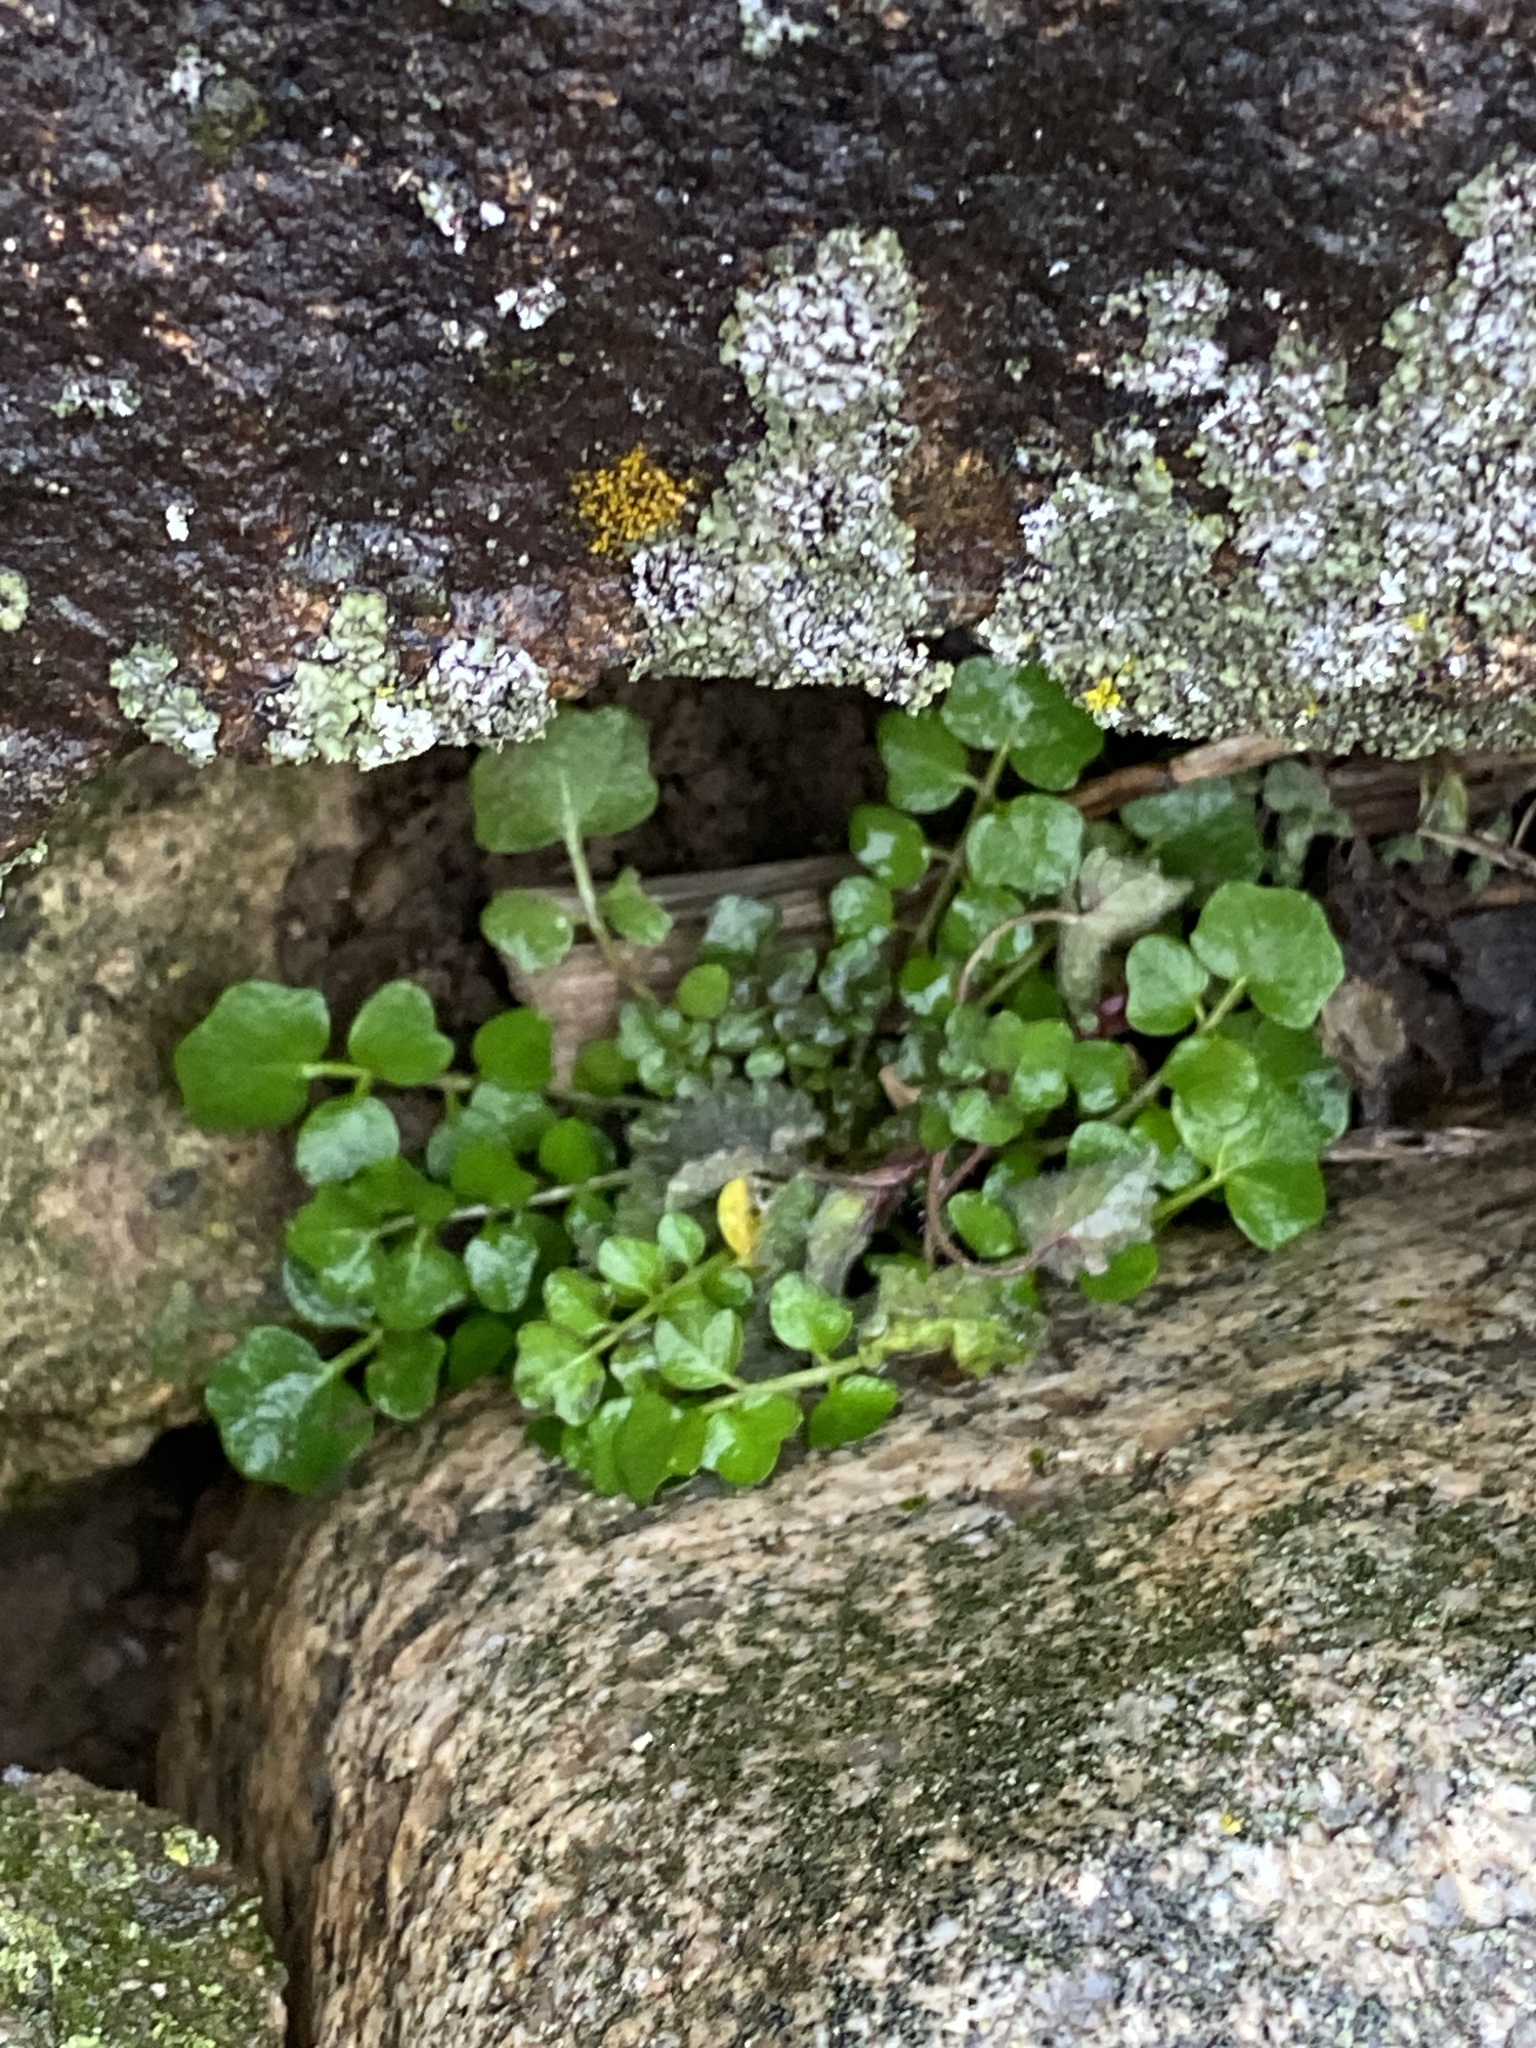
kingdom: Plantae
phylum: Tracheophyta
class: Magnoliopsida
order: Brassicales
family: Brassicaceae
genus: Cardamine
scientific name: Cardamine hirsuta
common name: Hairy bittercress
